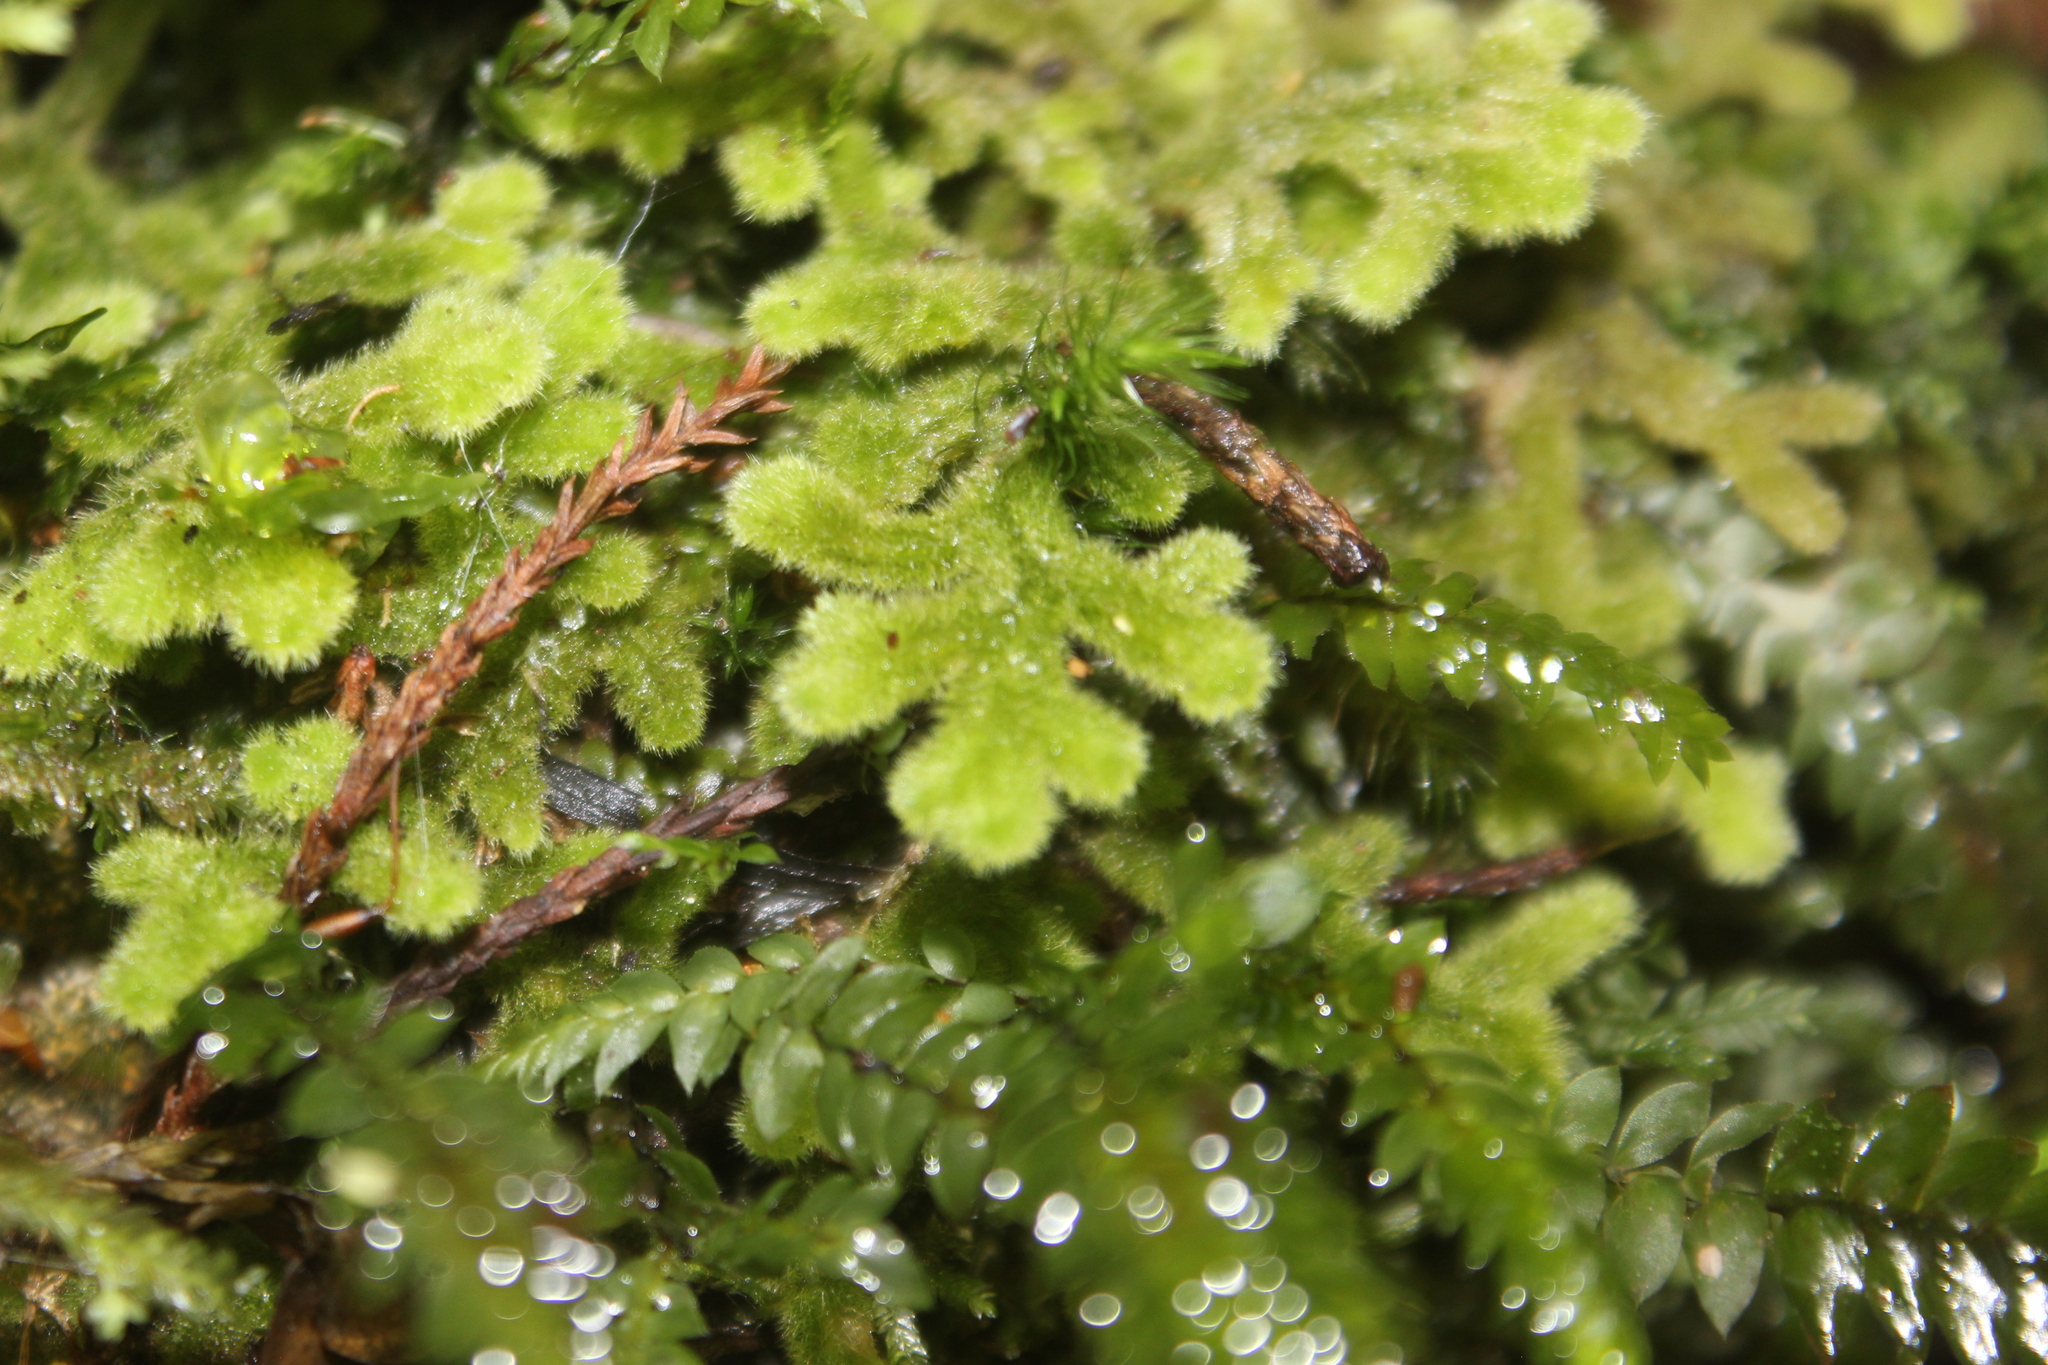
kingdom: Plantae
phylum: Marchantiophyta
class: Jungermanniopsida
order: Jungermanniales
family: Trichocoleaceae
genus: Leiomitra
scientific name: Leiomitra lanata
